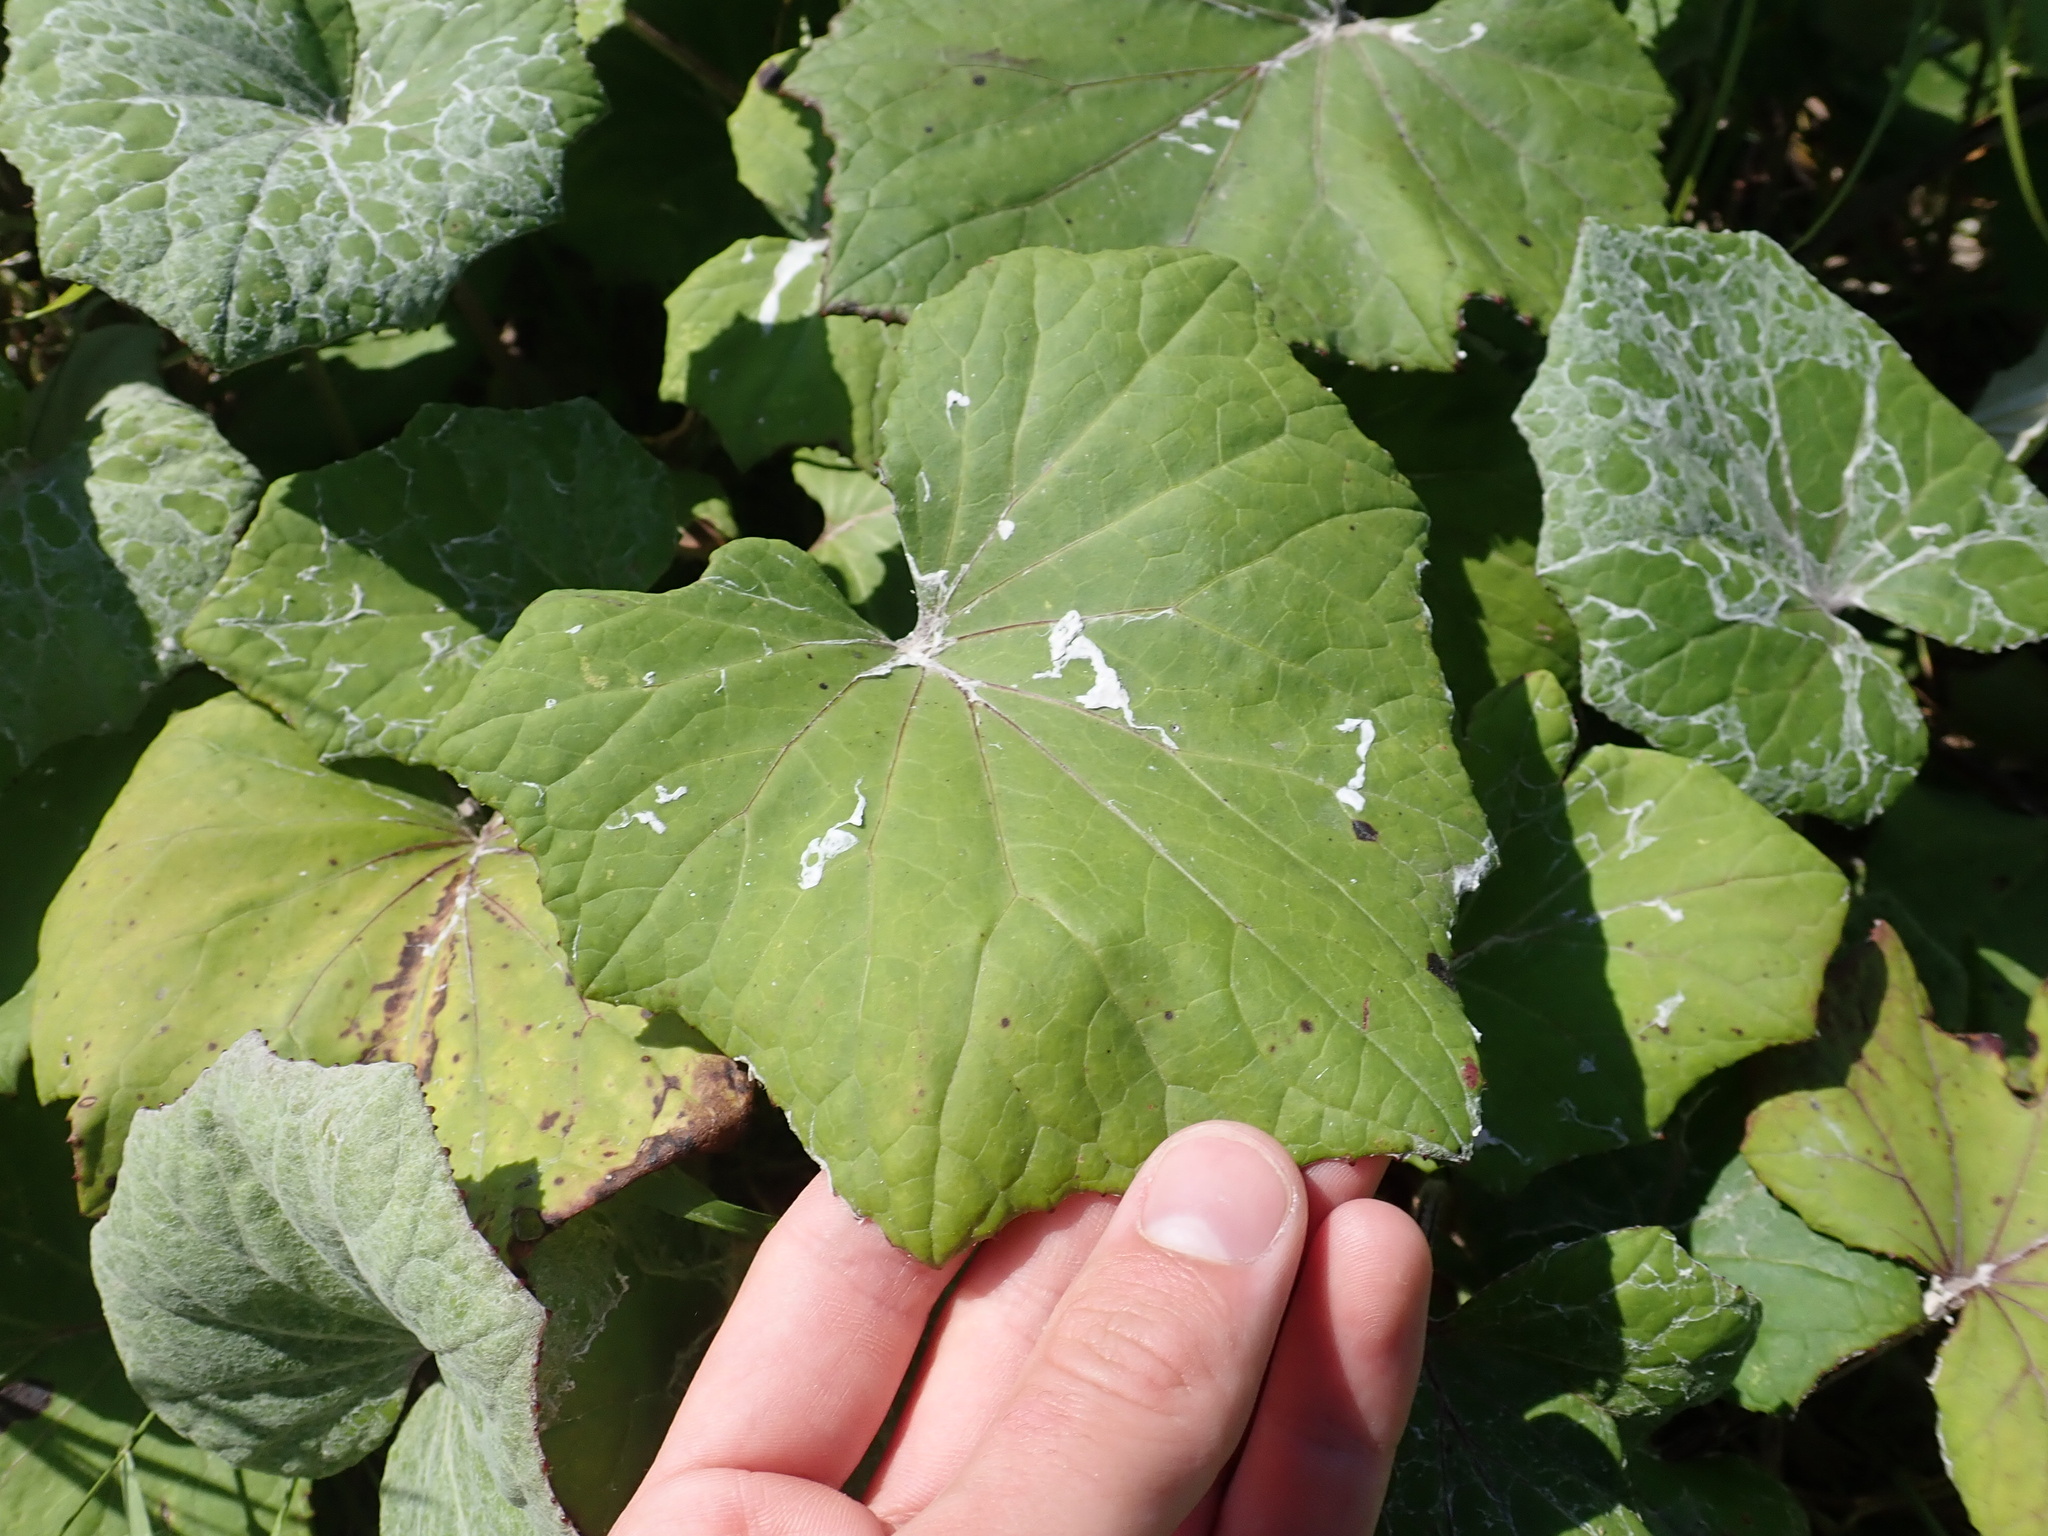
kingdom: Plantae
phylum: Tracheophyta
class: Magnoliopsida
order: Asterales
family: Asteraceae
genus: Tussilago
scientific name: Tussilago farfara
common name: Coltsfoot
